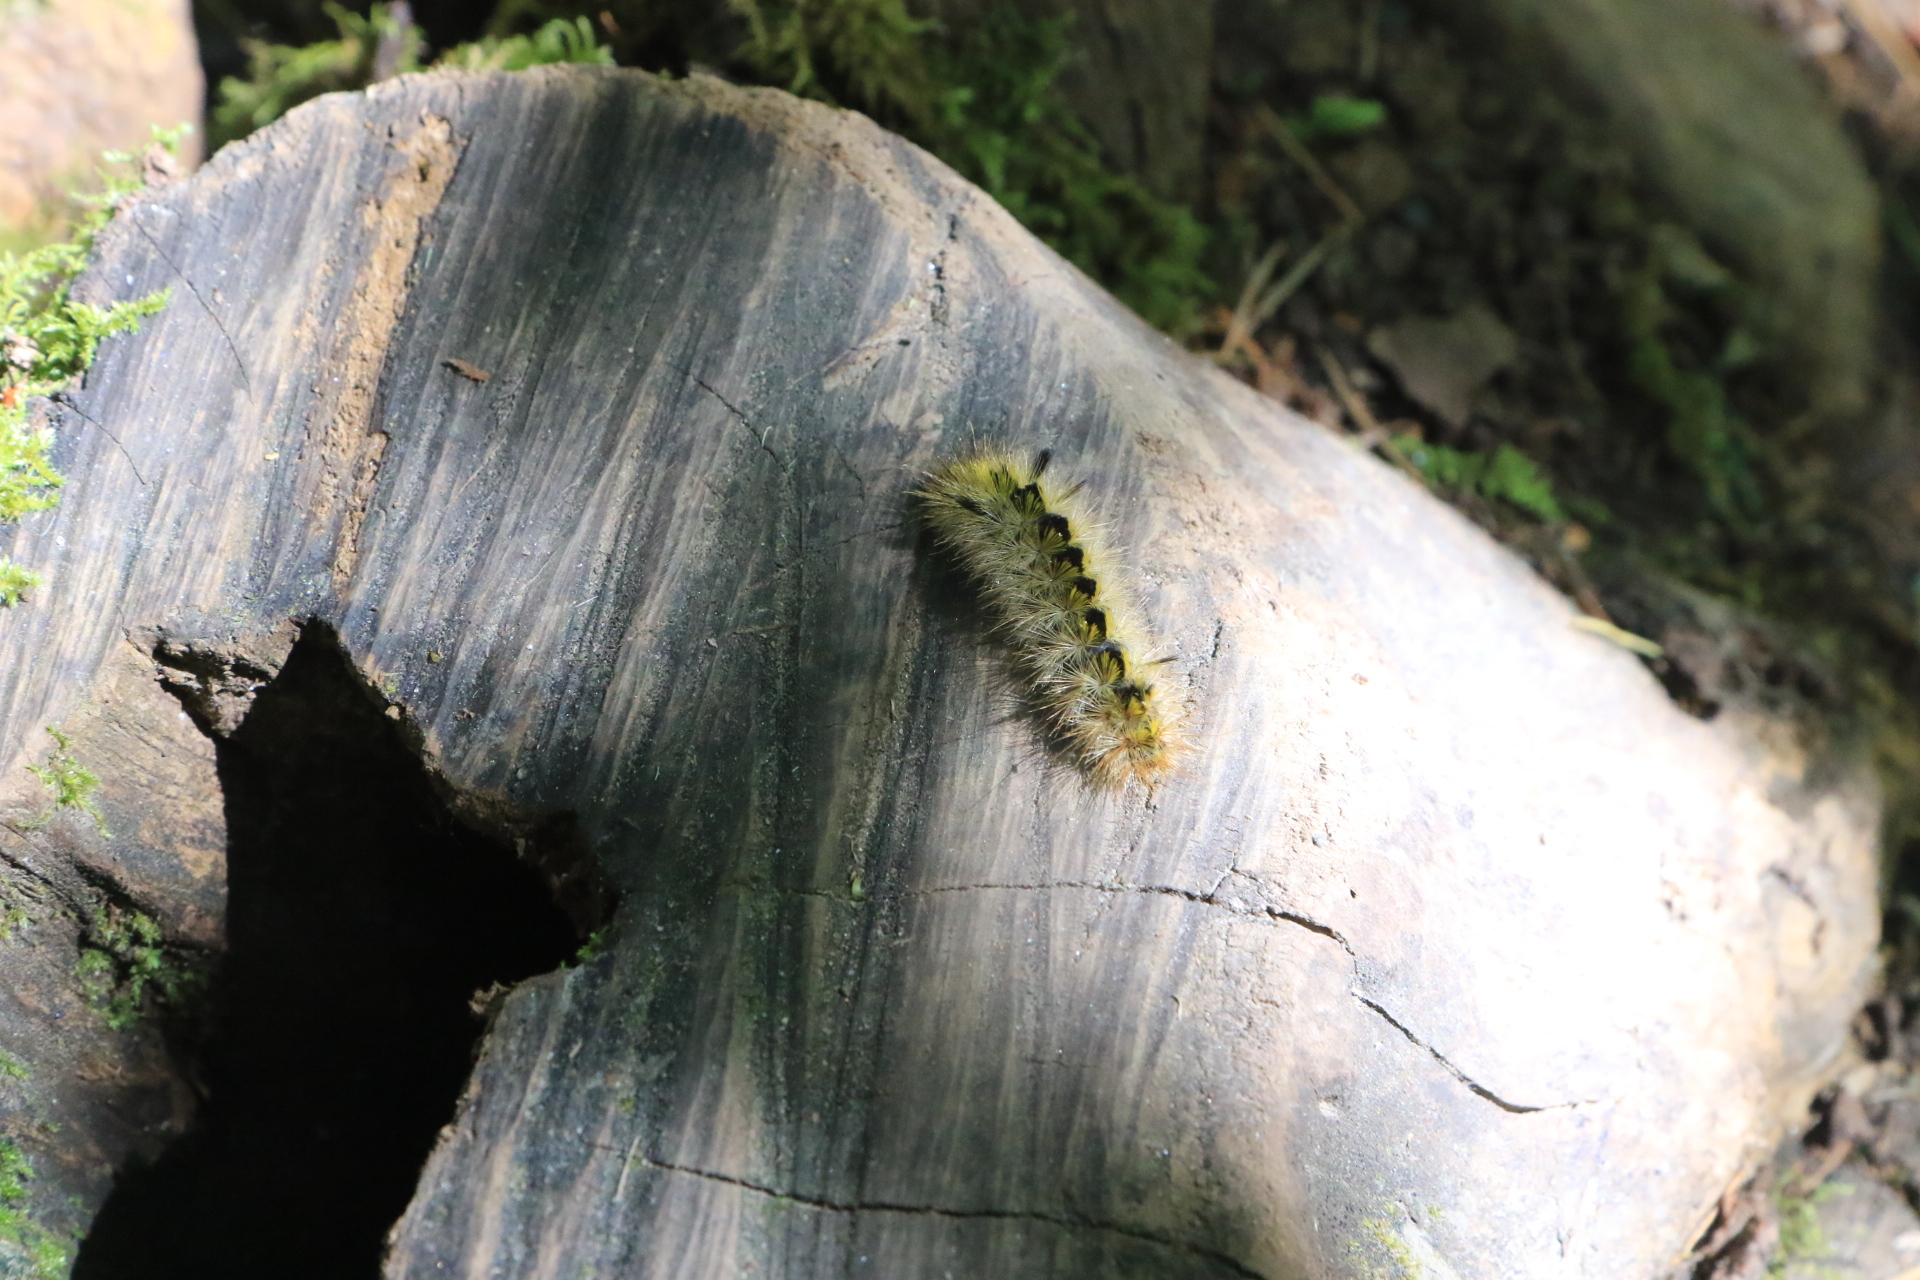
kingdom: Animalia
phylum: Arthropoda
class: Insecta
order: Lepidoptera
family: Erebidae
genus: Lophocampa
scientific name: Lophocampa argentata
